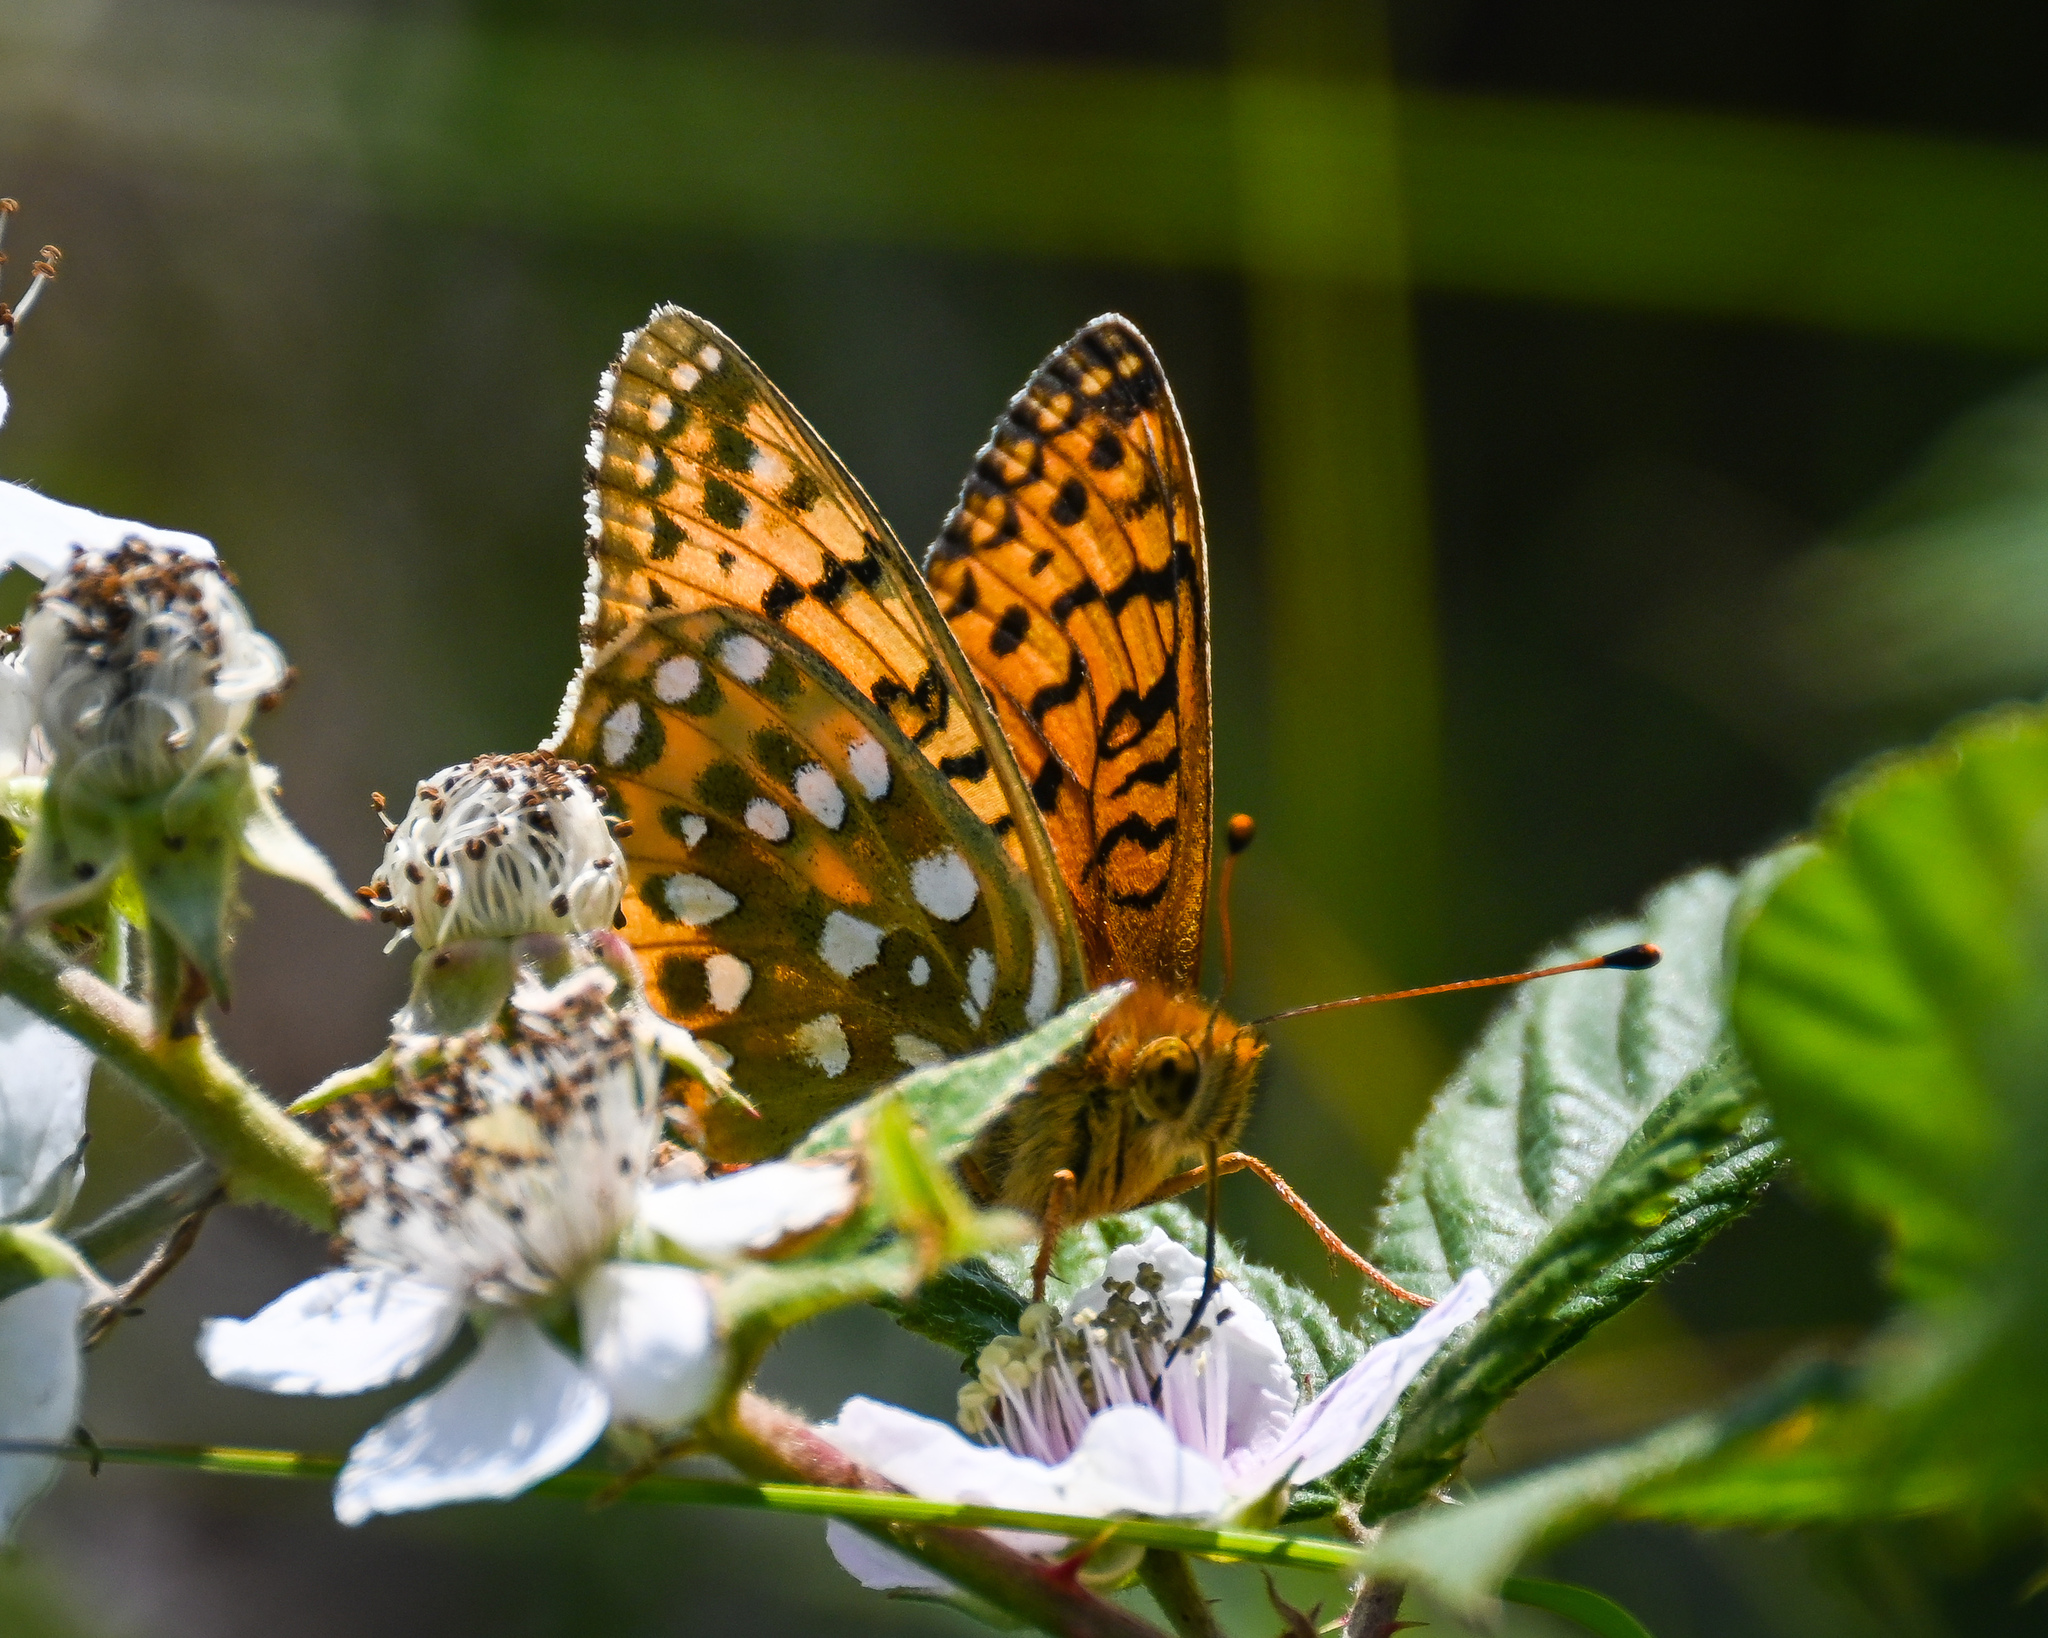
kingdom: Animalia
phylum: Arthropoda
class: Insecta
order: Lepidoptera
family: Nymphalidae
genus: Speyeria
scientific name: Speyeria aglaja
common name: Dark green fritillary
